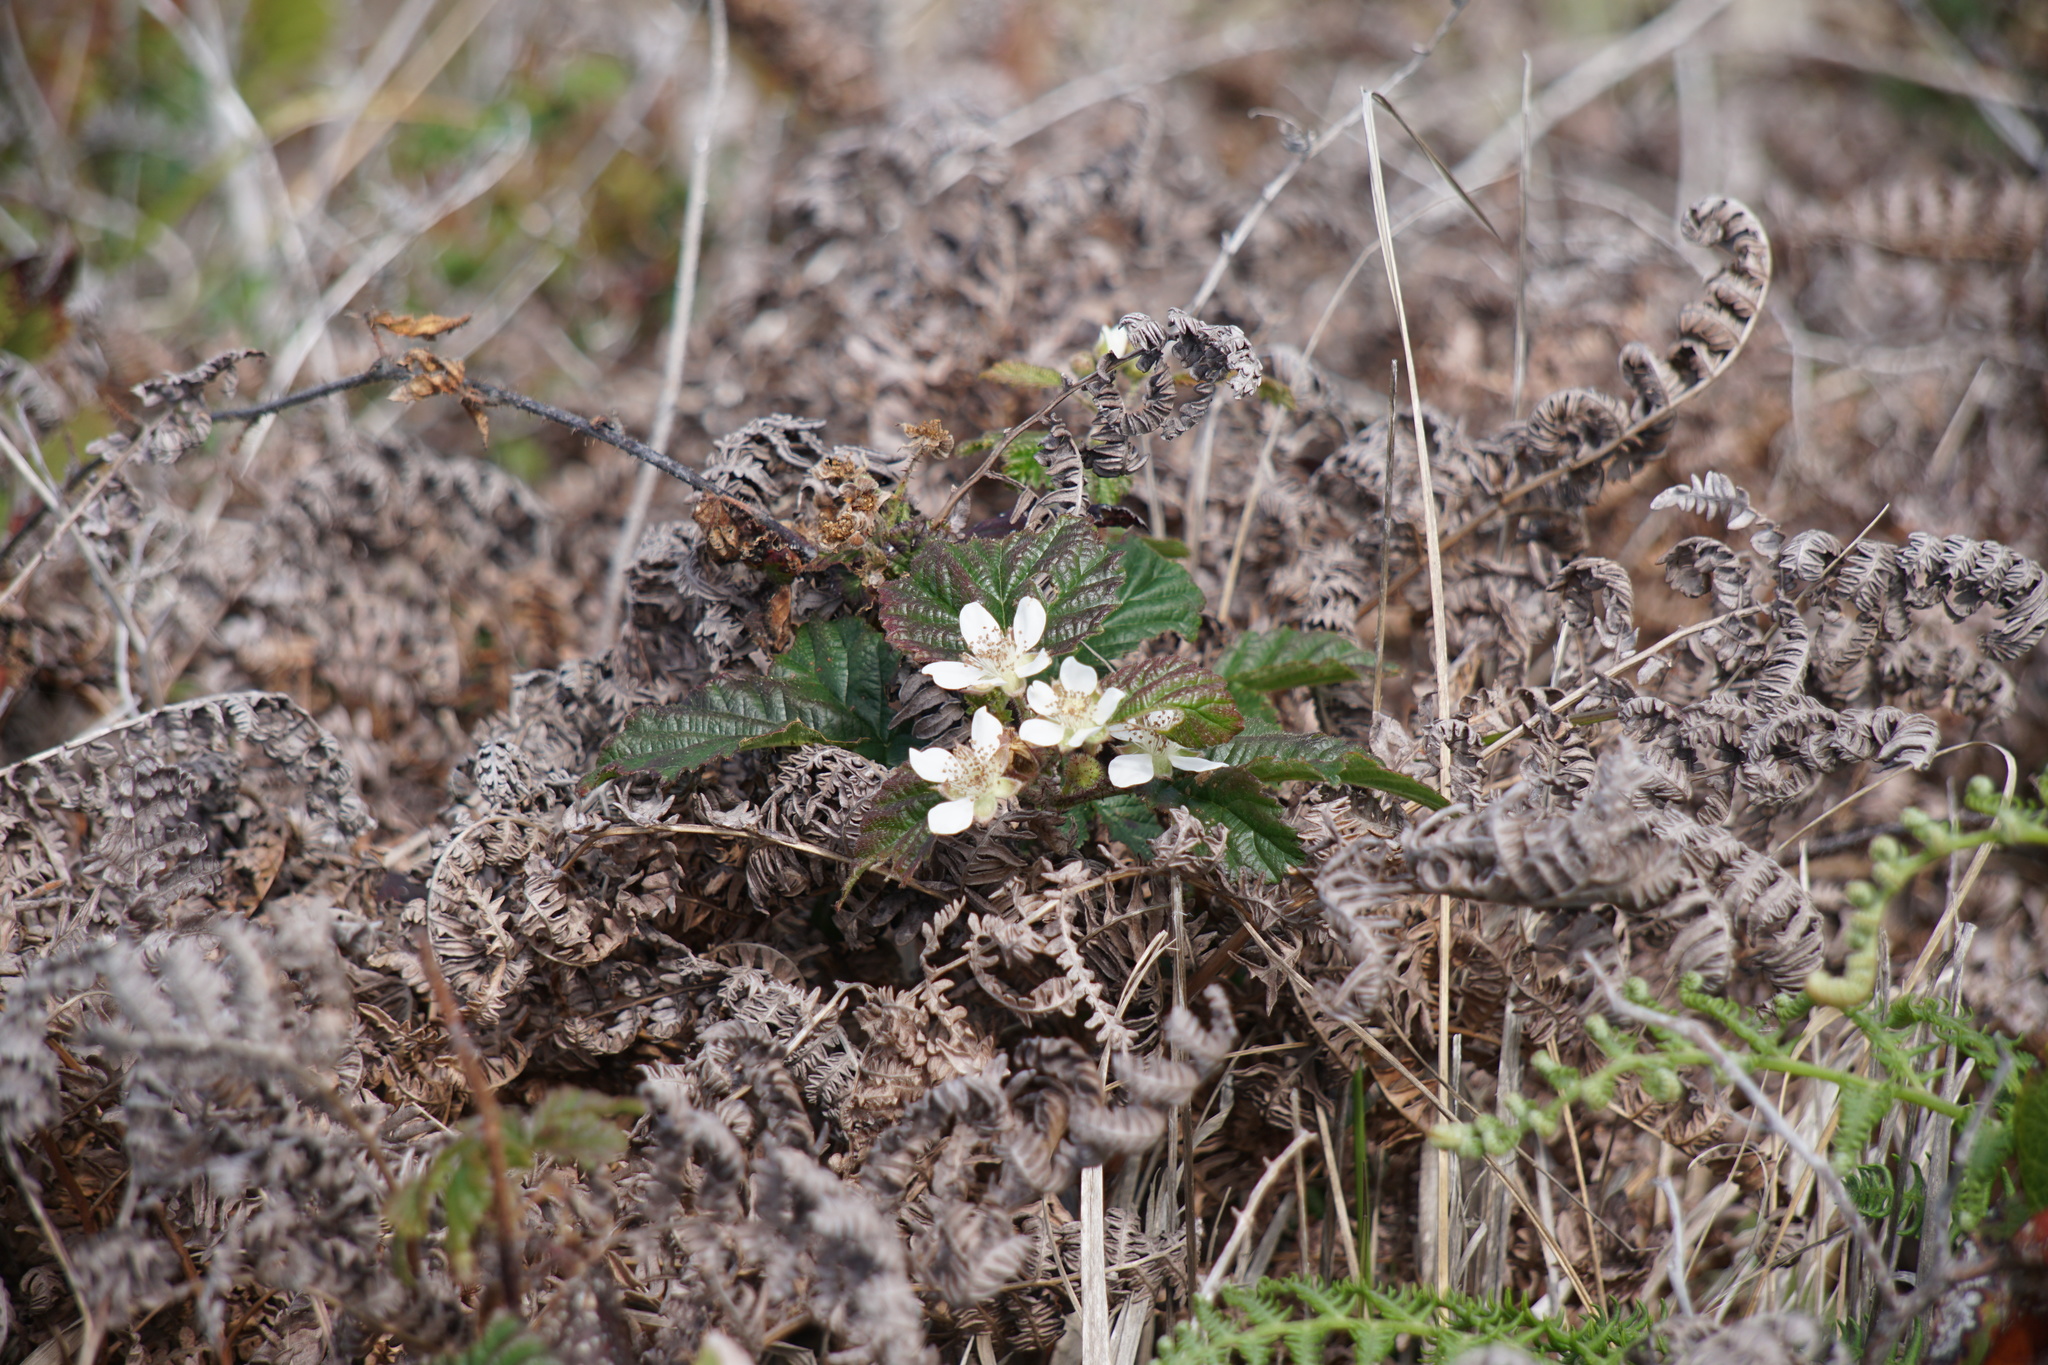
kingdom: Plantae
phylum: Tracheophyta
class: Magnoliopsida
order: Rosales
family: Rosaceae
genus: Rubus
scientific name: Rubus ursinus
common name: Pacific blackberry
